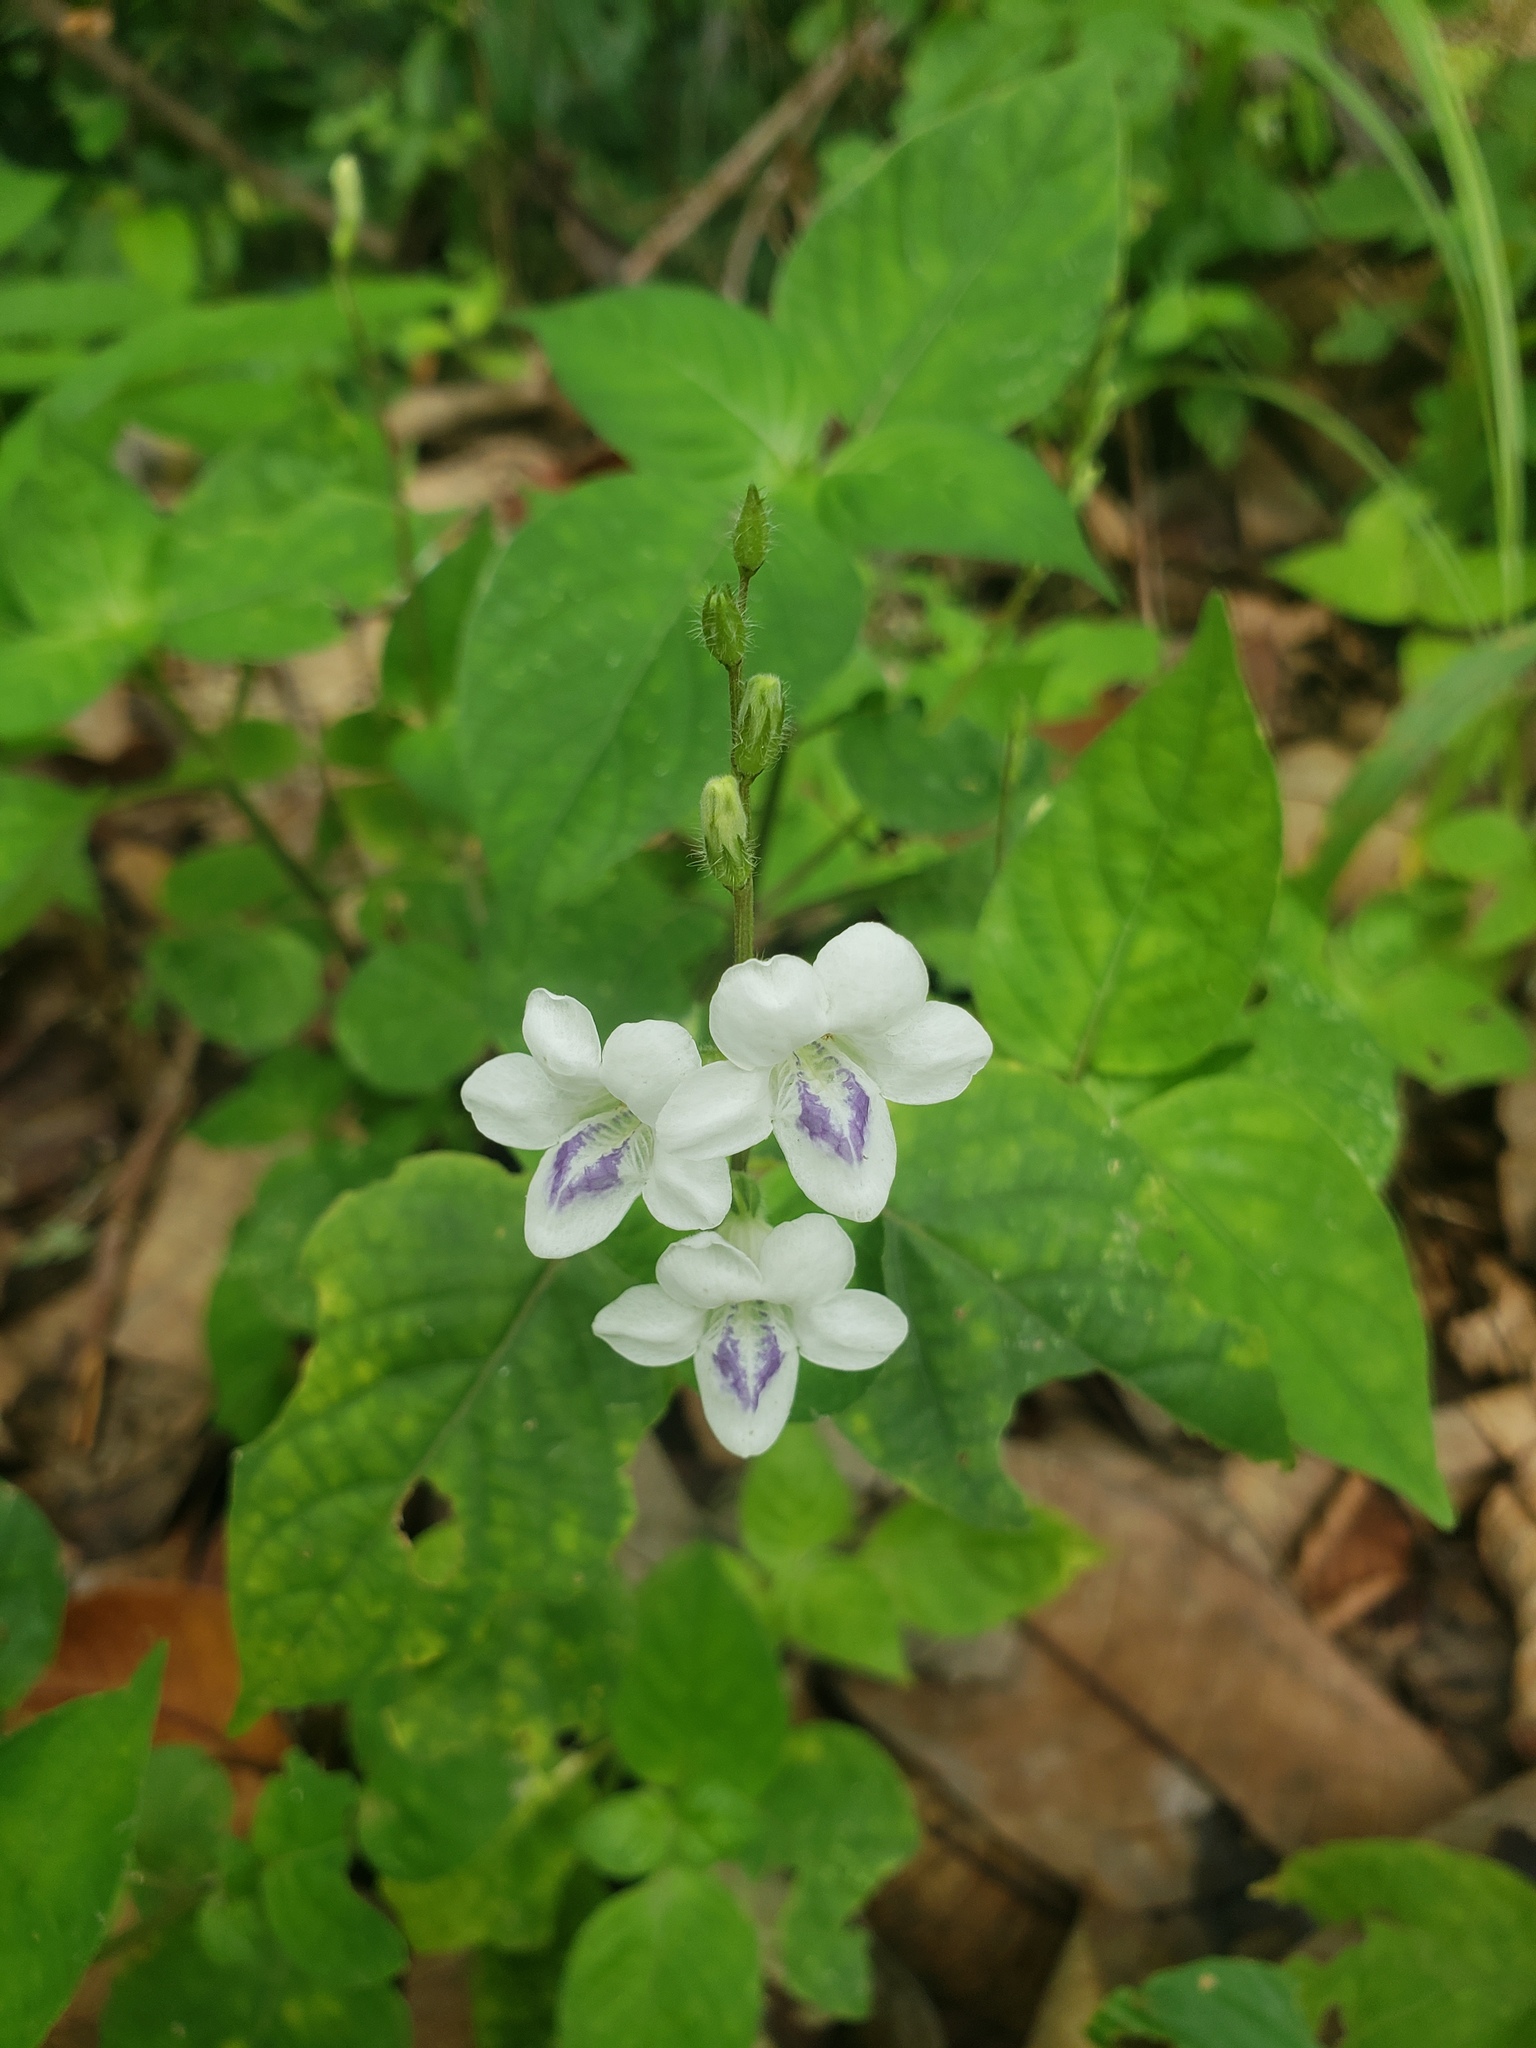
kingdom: Plantae
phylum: Tracheophyta
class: Magnoliopsida
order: Lamiales
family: Acanthaceae
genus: Asystasia
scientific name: Asystasia intrusa
